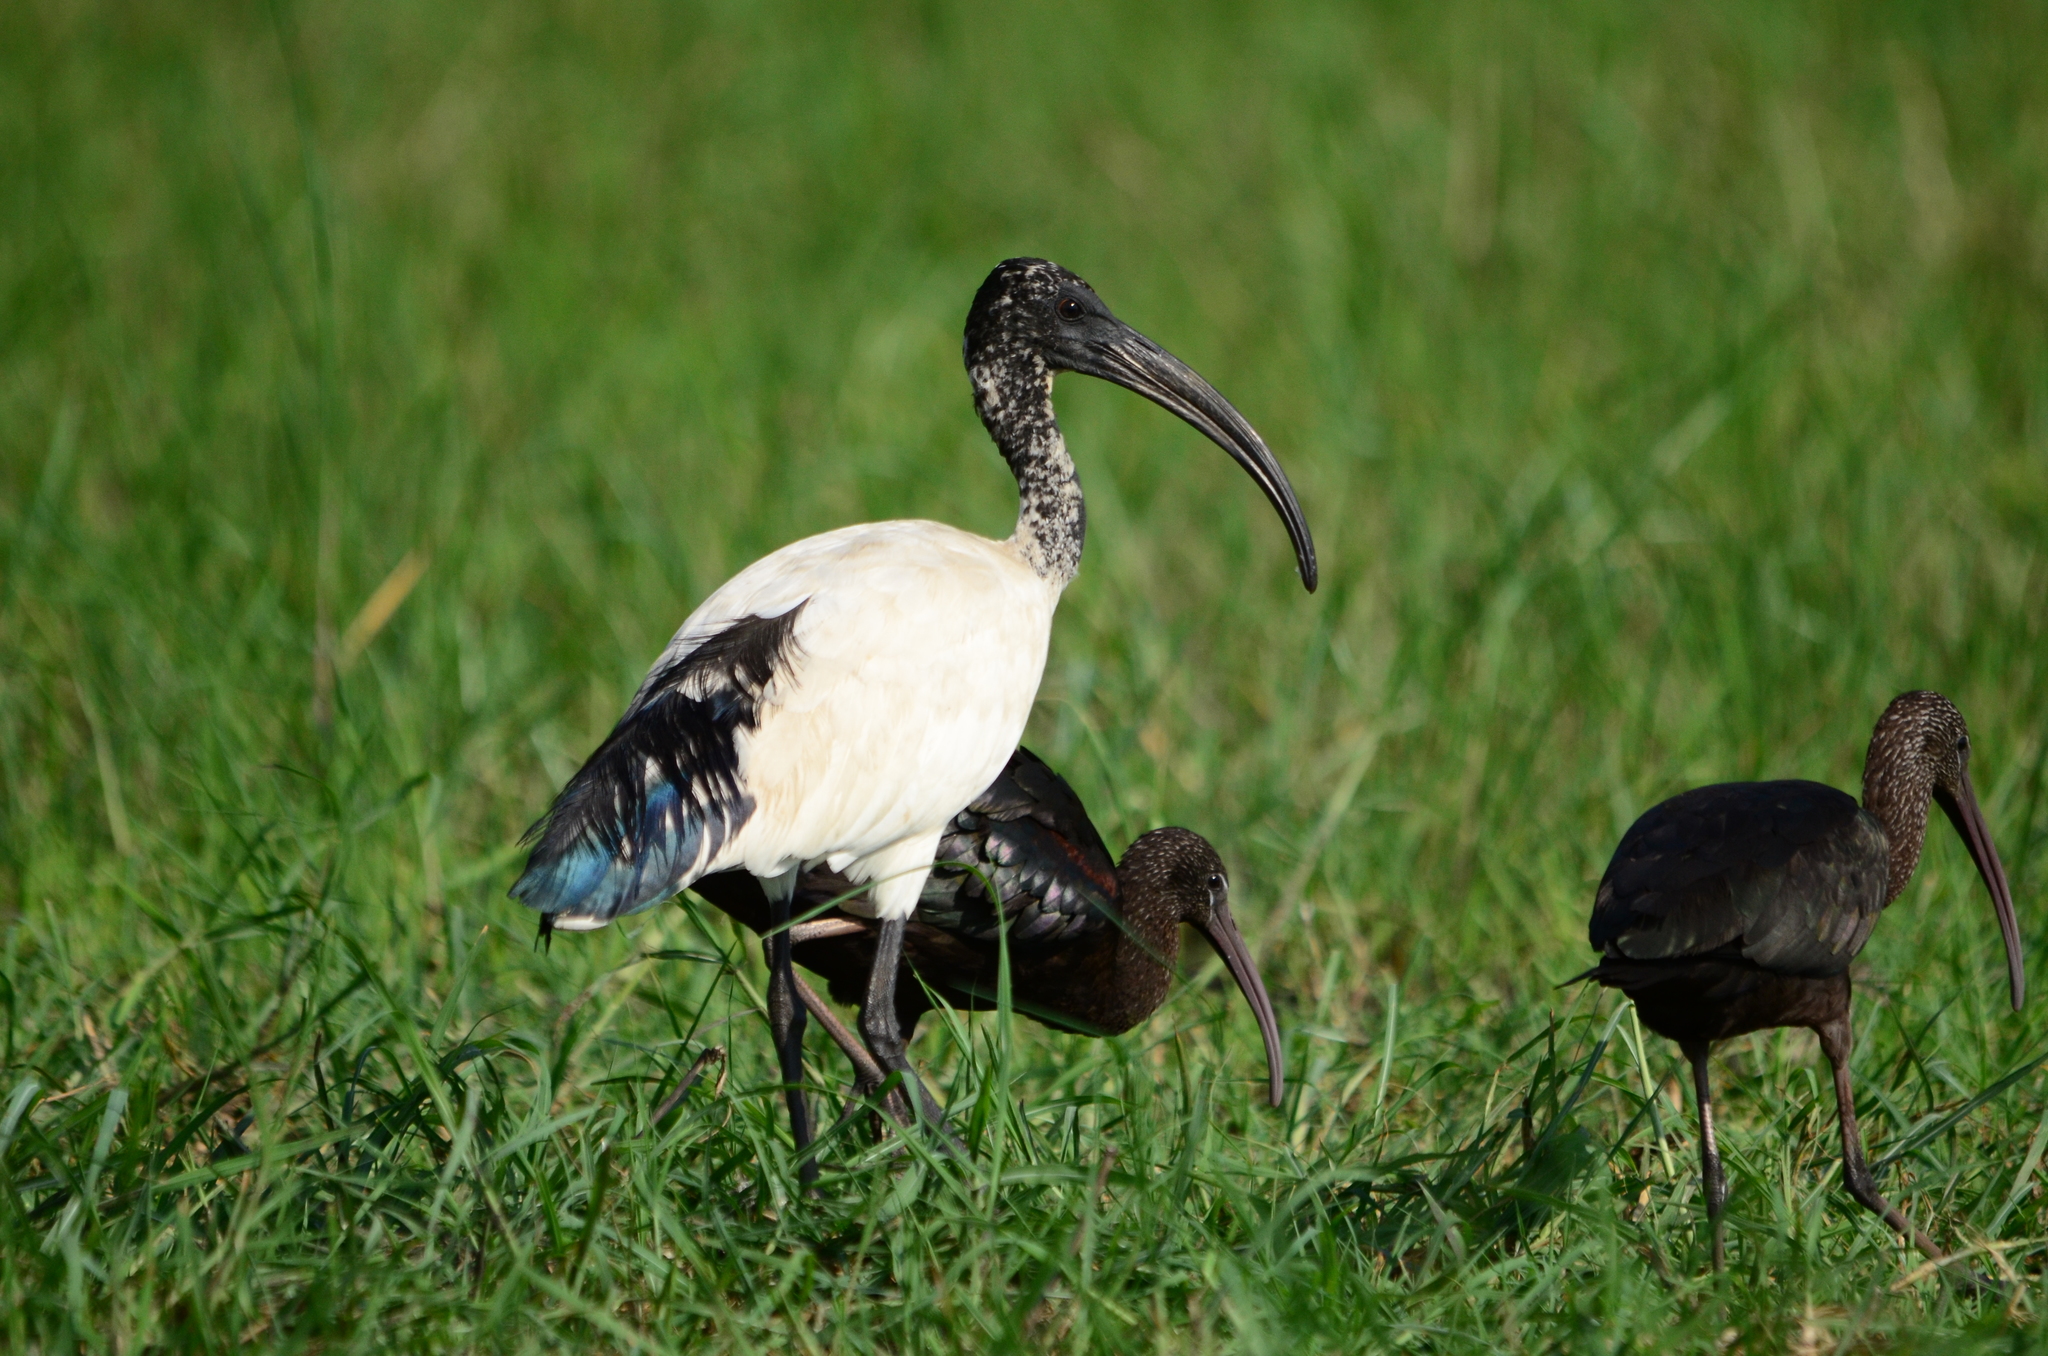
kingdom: Animalia
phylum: Chordata
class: Aves
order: Pelecaniformes
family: Threskiornithidae
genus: Threskiornis
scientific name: Threskiornis aethiopicus
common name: Sacred ibis
